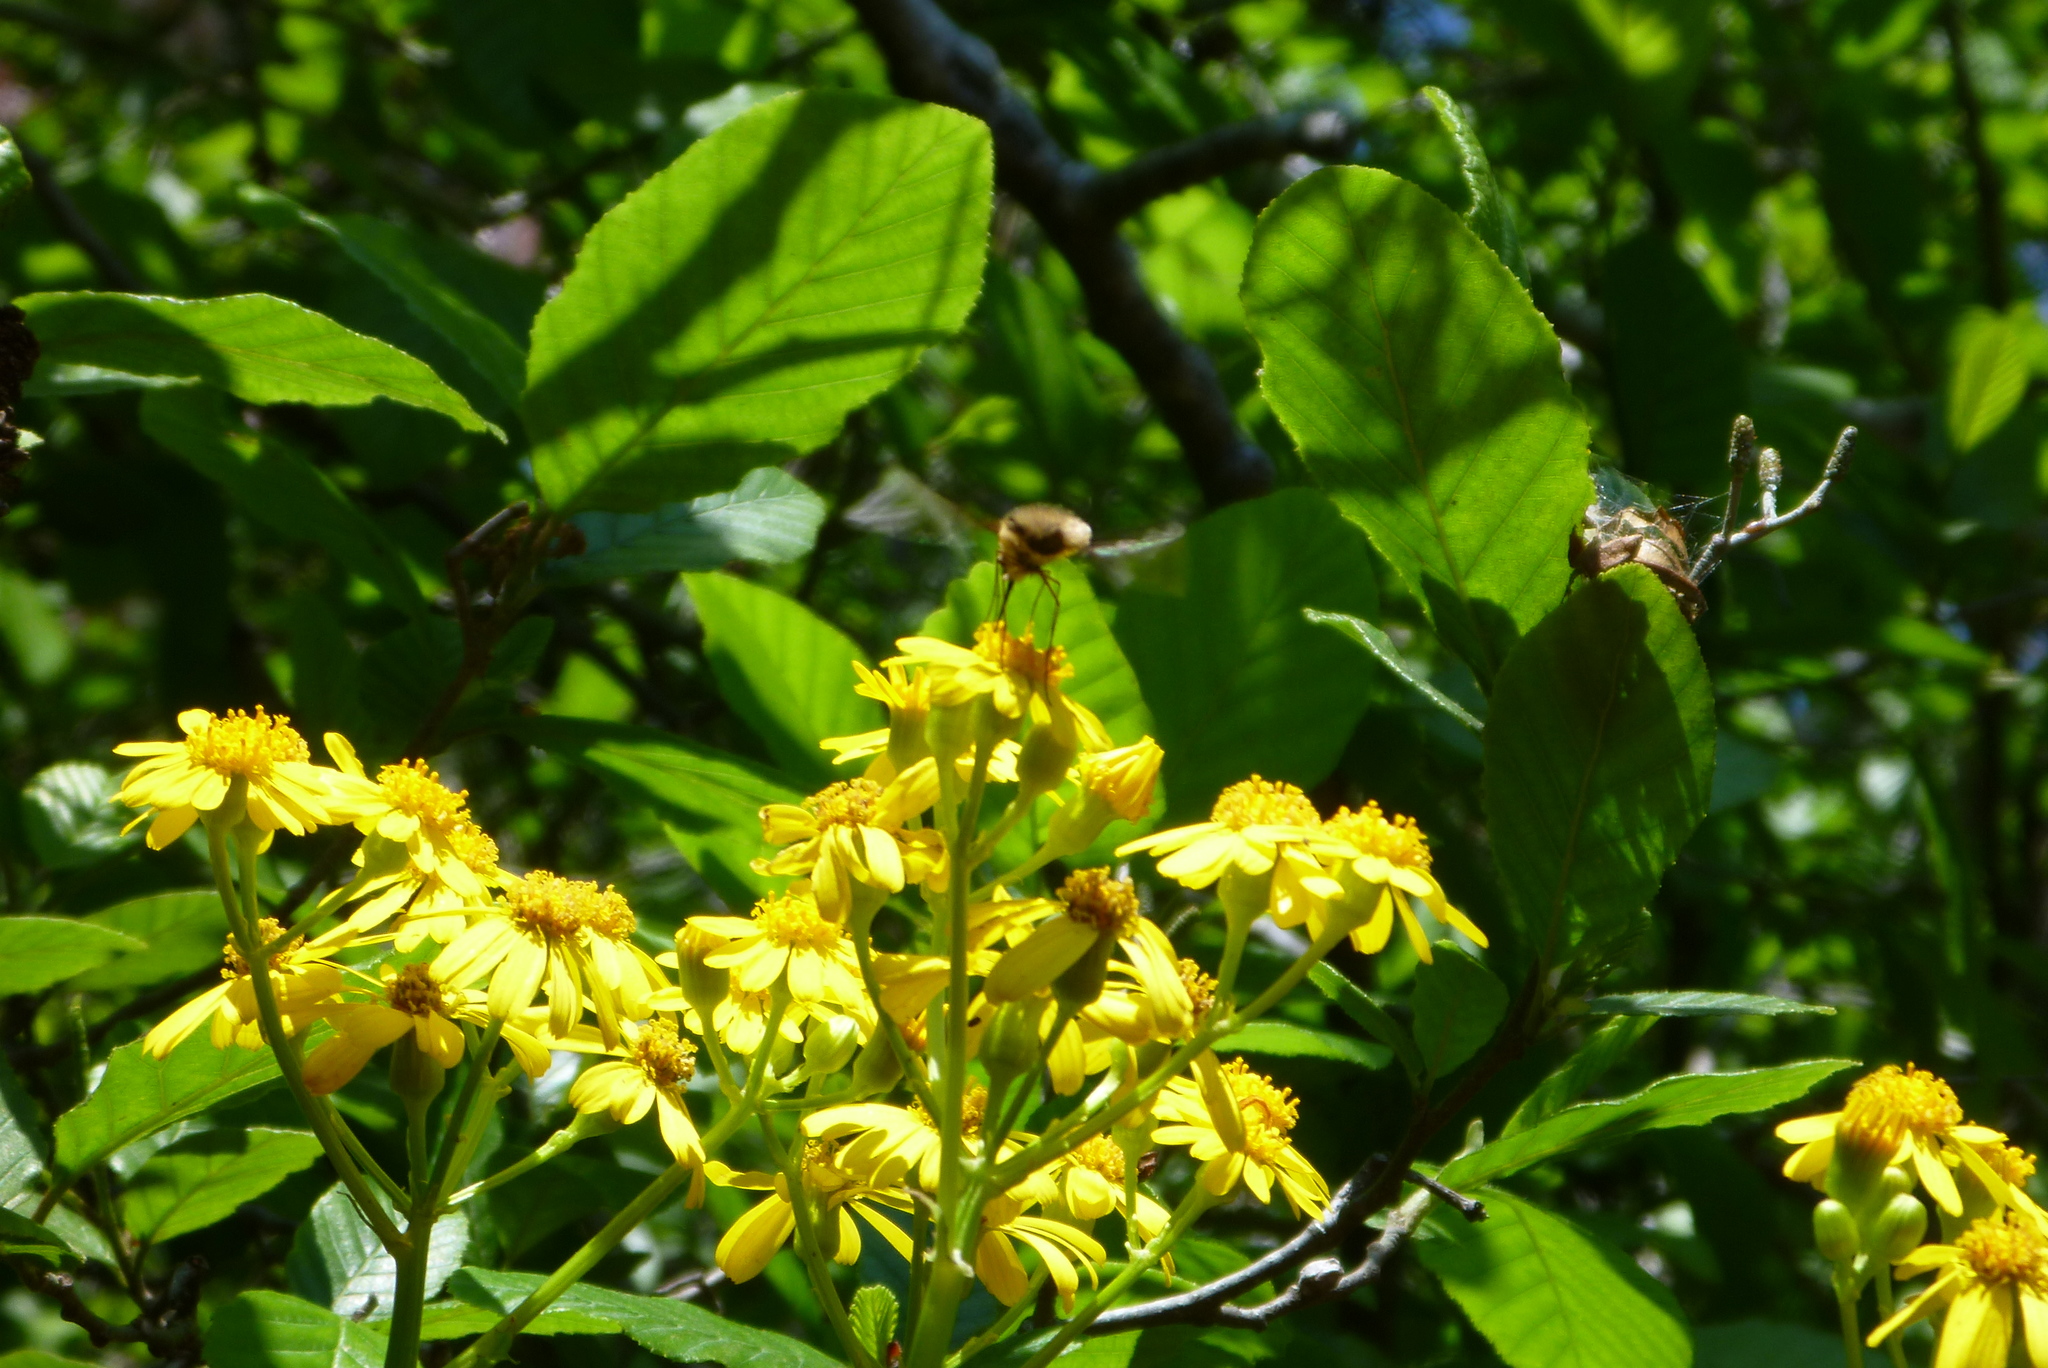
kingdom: Plantae
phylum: Tracheophyta
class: Magnoliopsida
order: Asterales
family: Asteraceae
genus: Packera
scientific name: Packera glabella
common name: Butterweed
